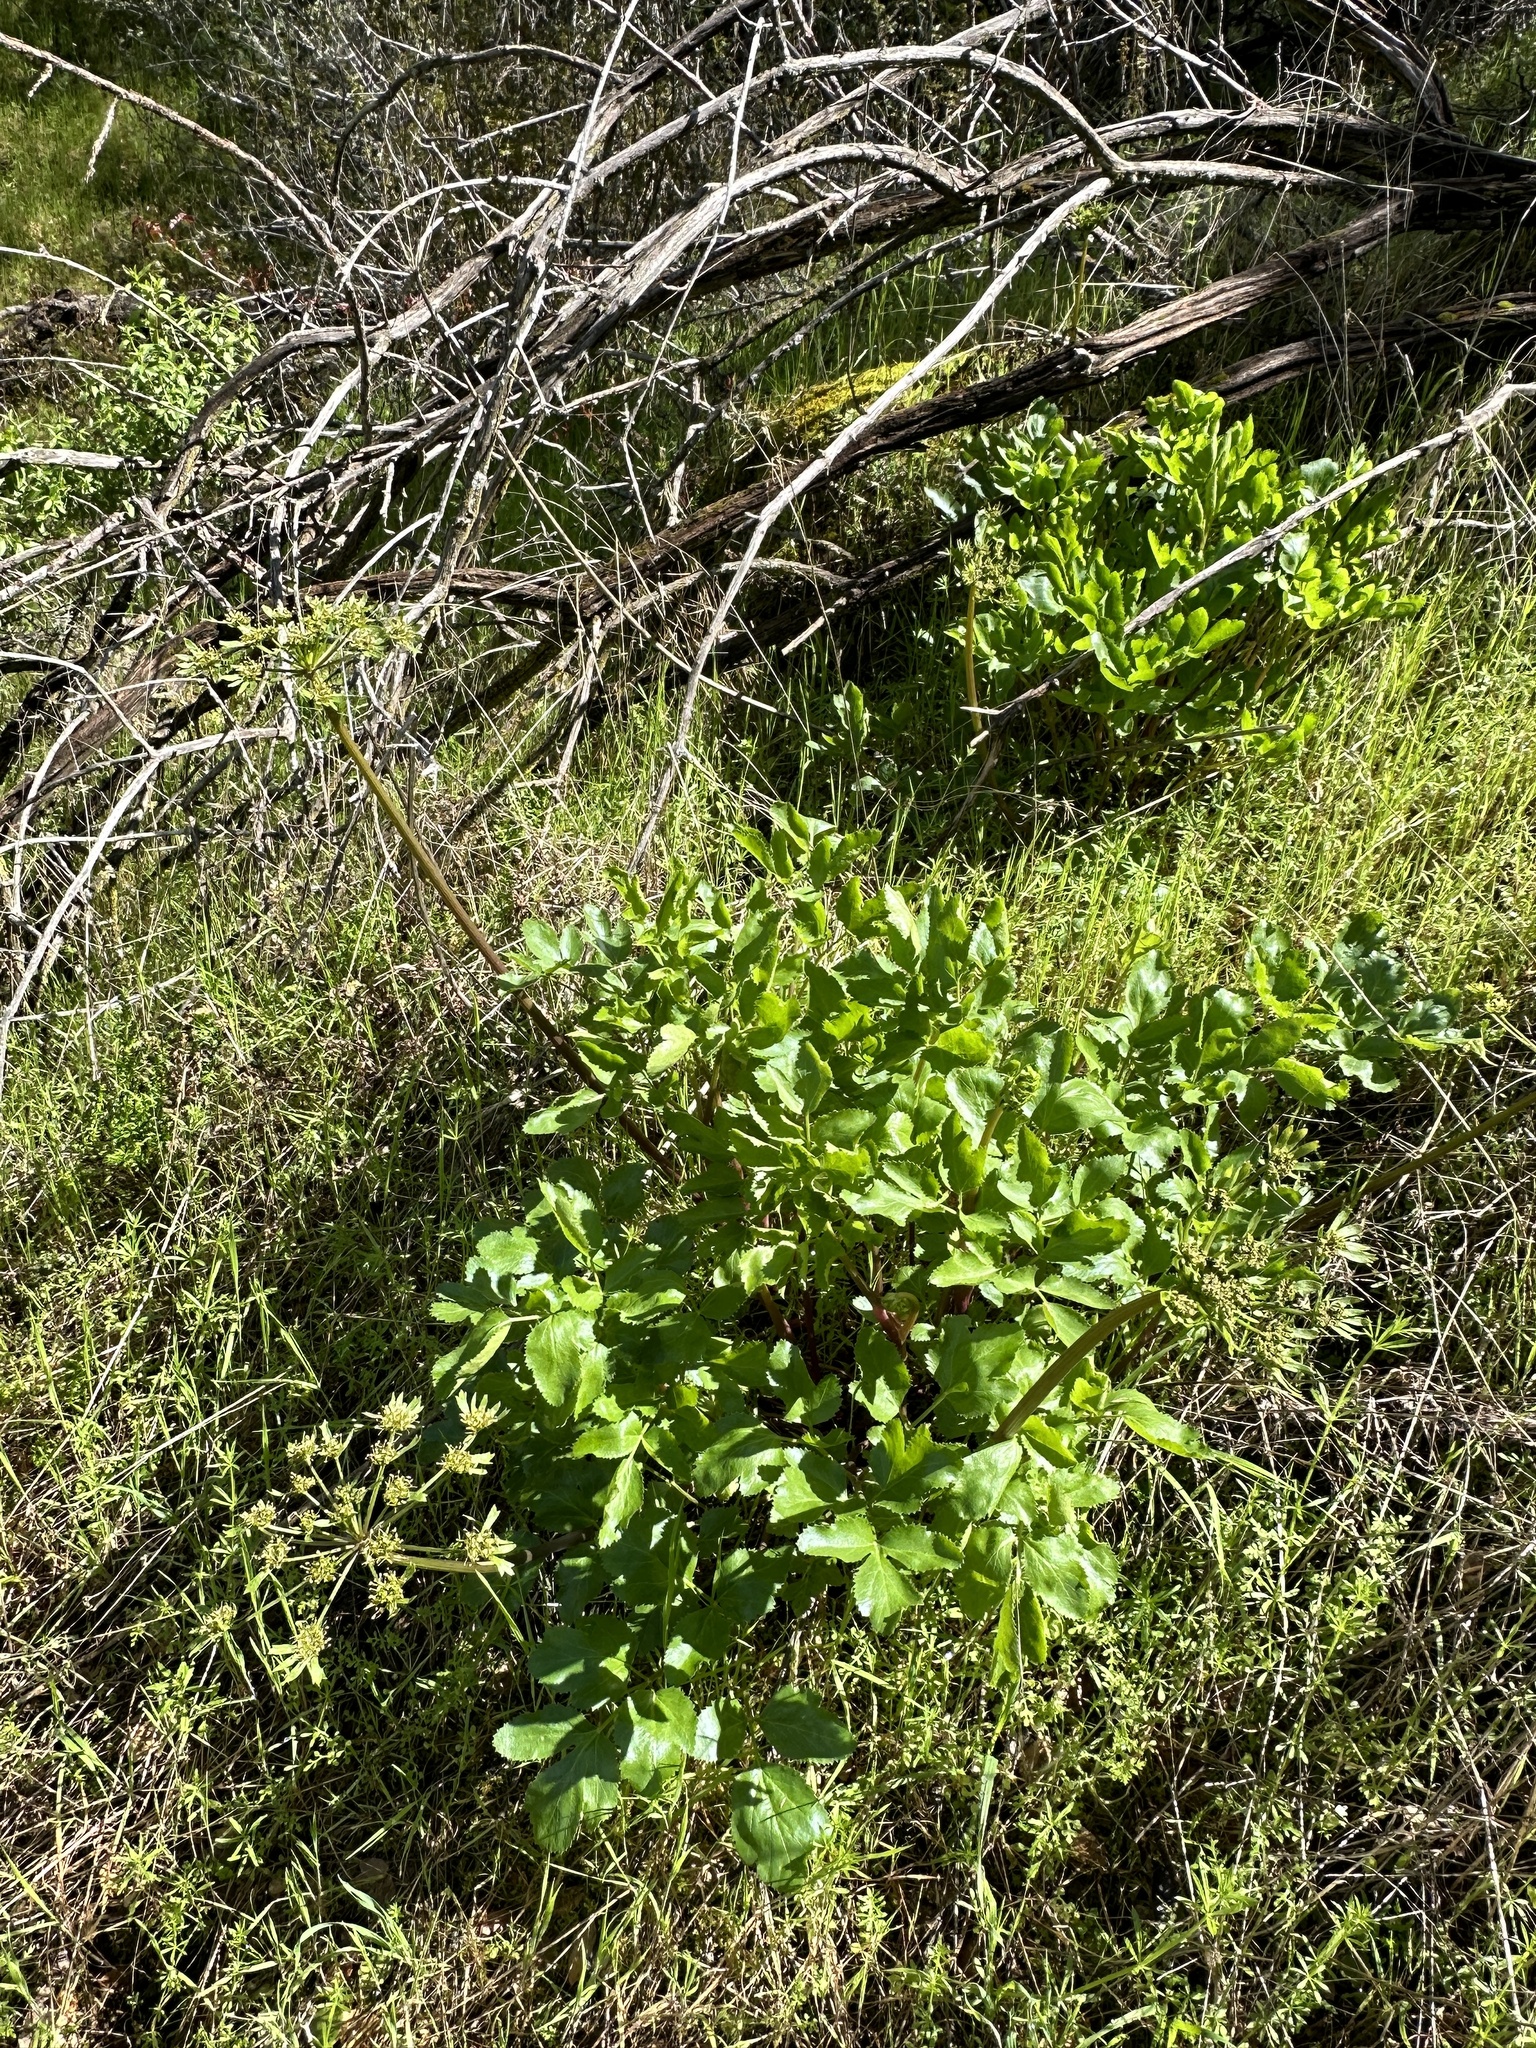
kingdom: Plantae
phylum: Tracheophyta
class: Magnoliopsida
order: Apiales
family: Apiaceae
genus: Tauschia
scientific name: Tauschia hartwegii
